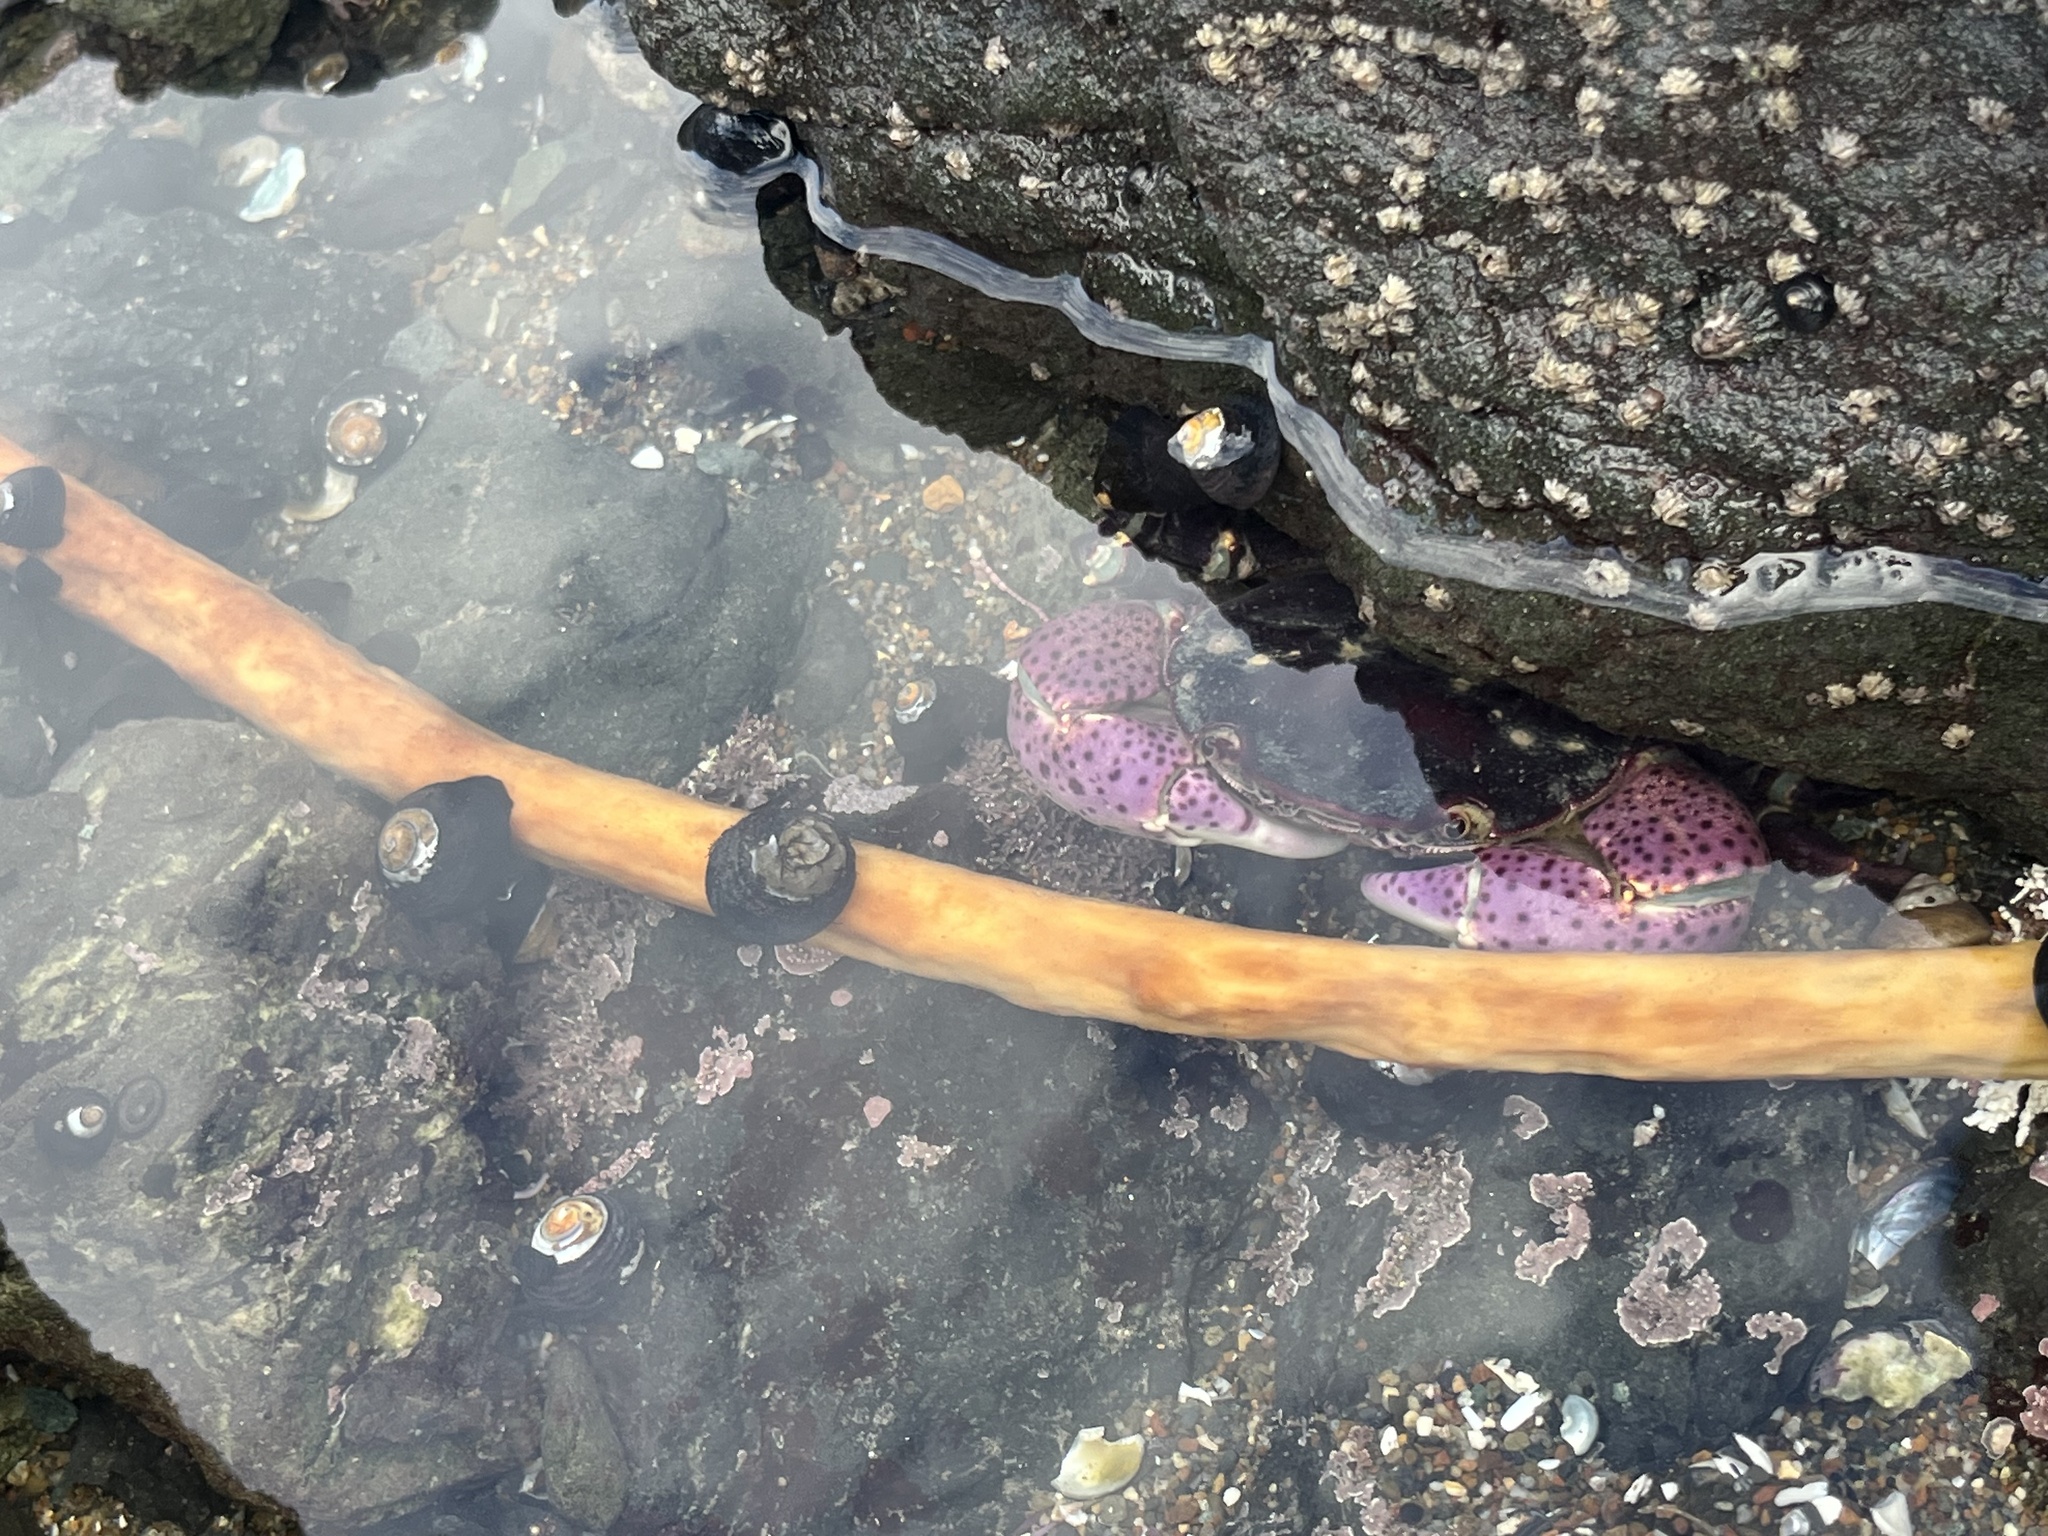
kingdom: Animalia
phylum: Arthropoda
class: Malacostraca
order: Decapoda
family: Varunidae
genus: Hemigrapsus
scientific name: Hemigrapsus nudus
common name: Purple shore crab
